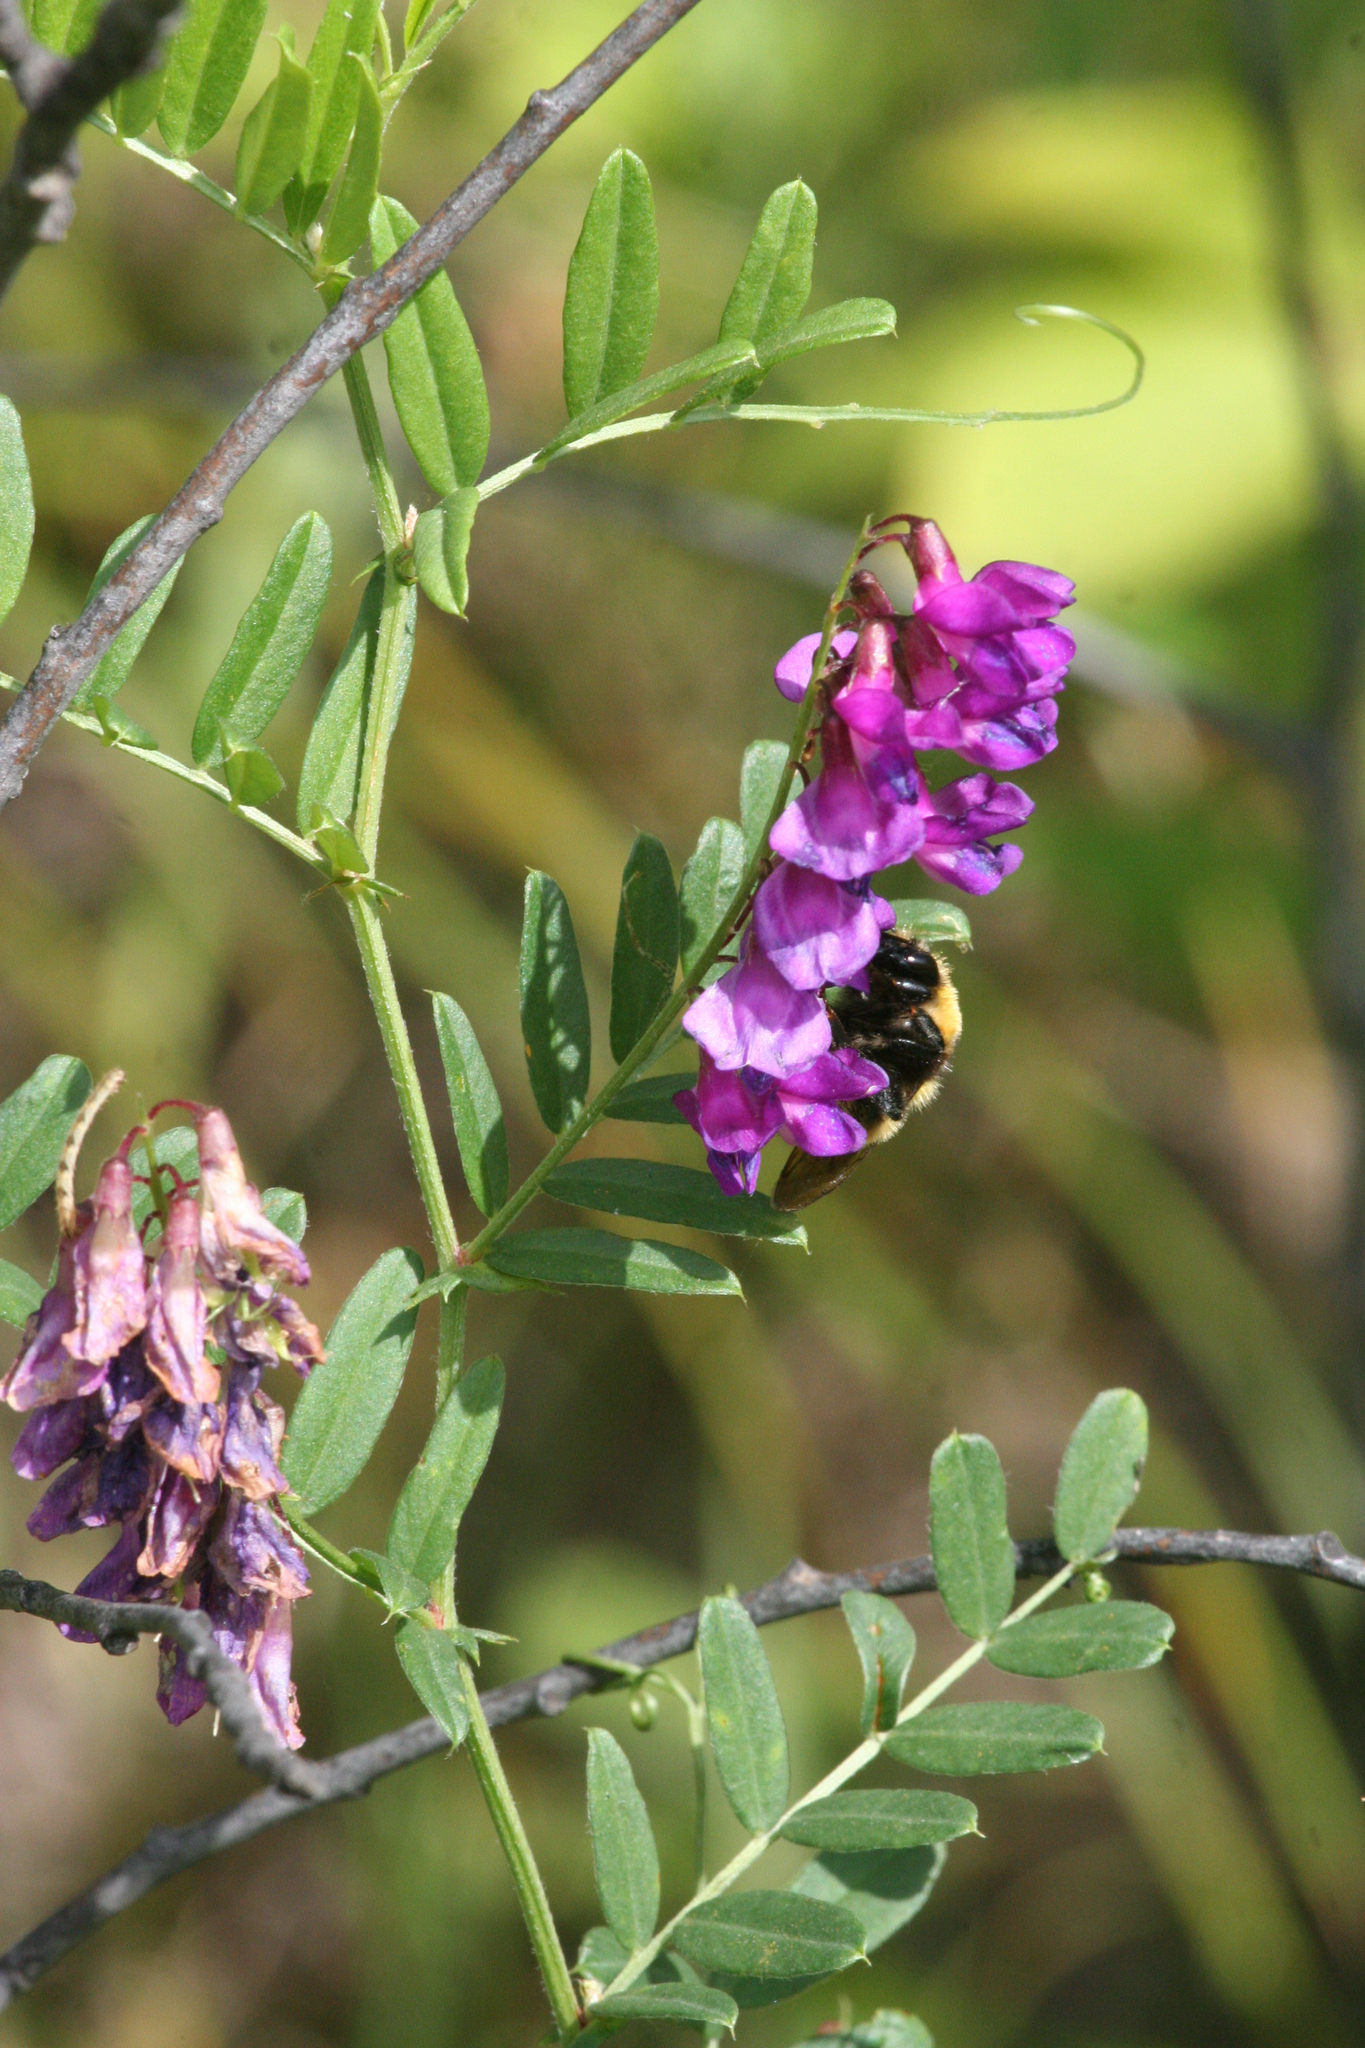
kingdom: Plantae
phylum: Tracheophyta
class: Magnoliopsida
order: Fabales
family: Fabaceae
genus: Vicia
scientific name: Vicia amoena
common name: Cheder ebs
